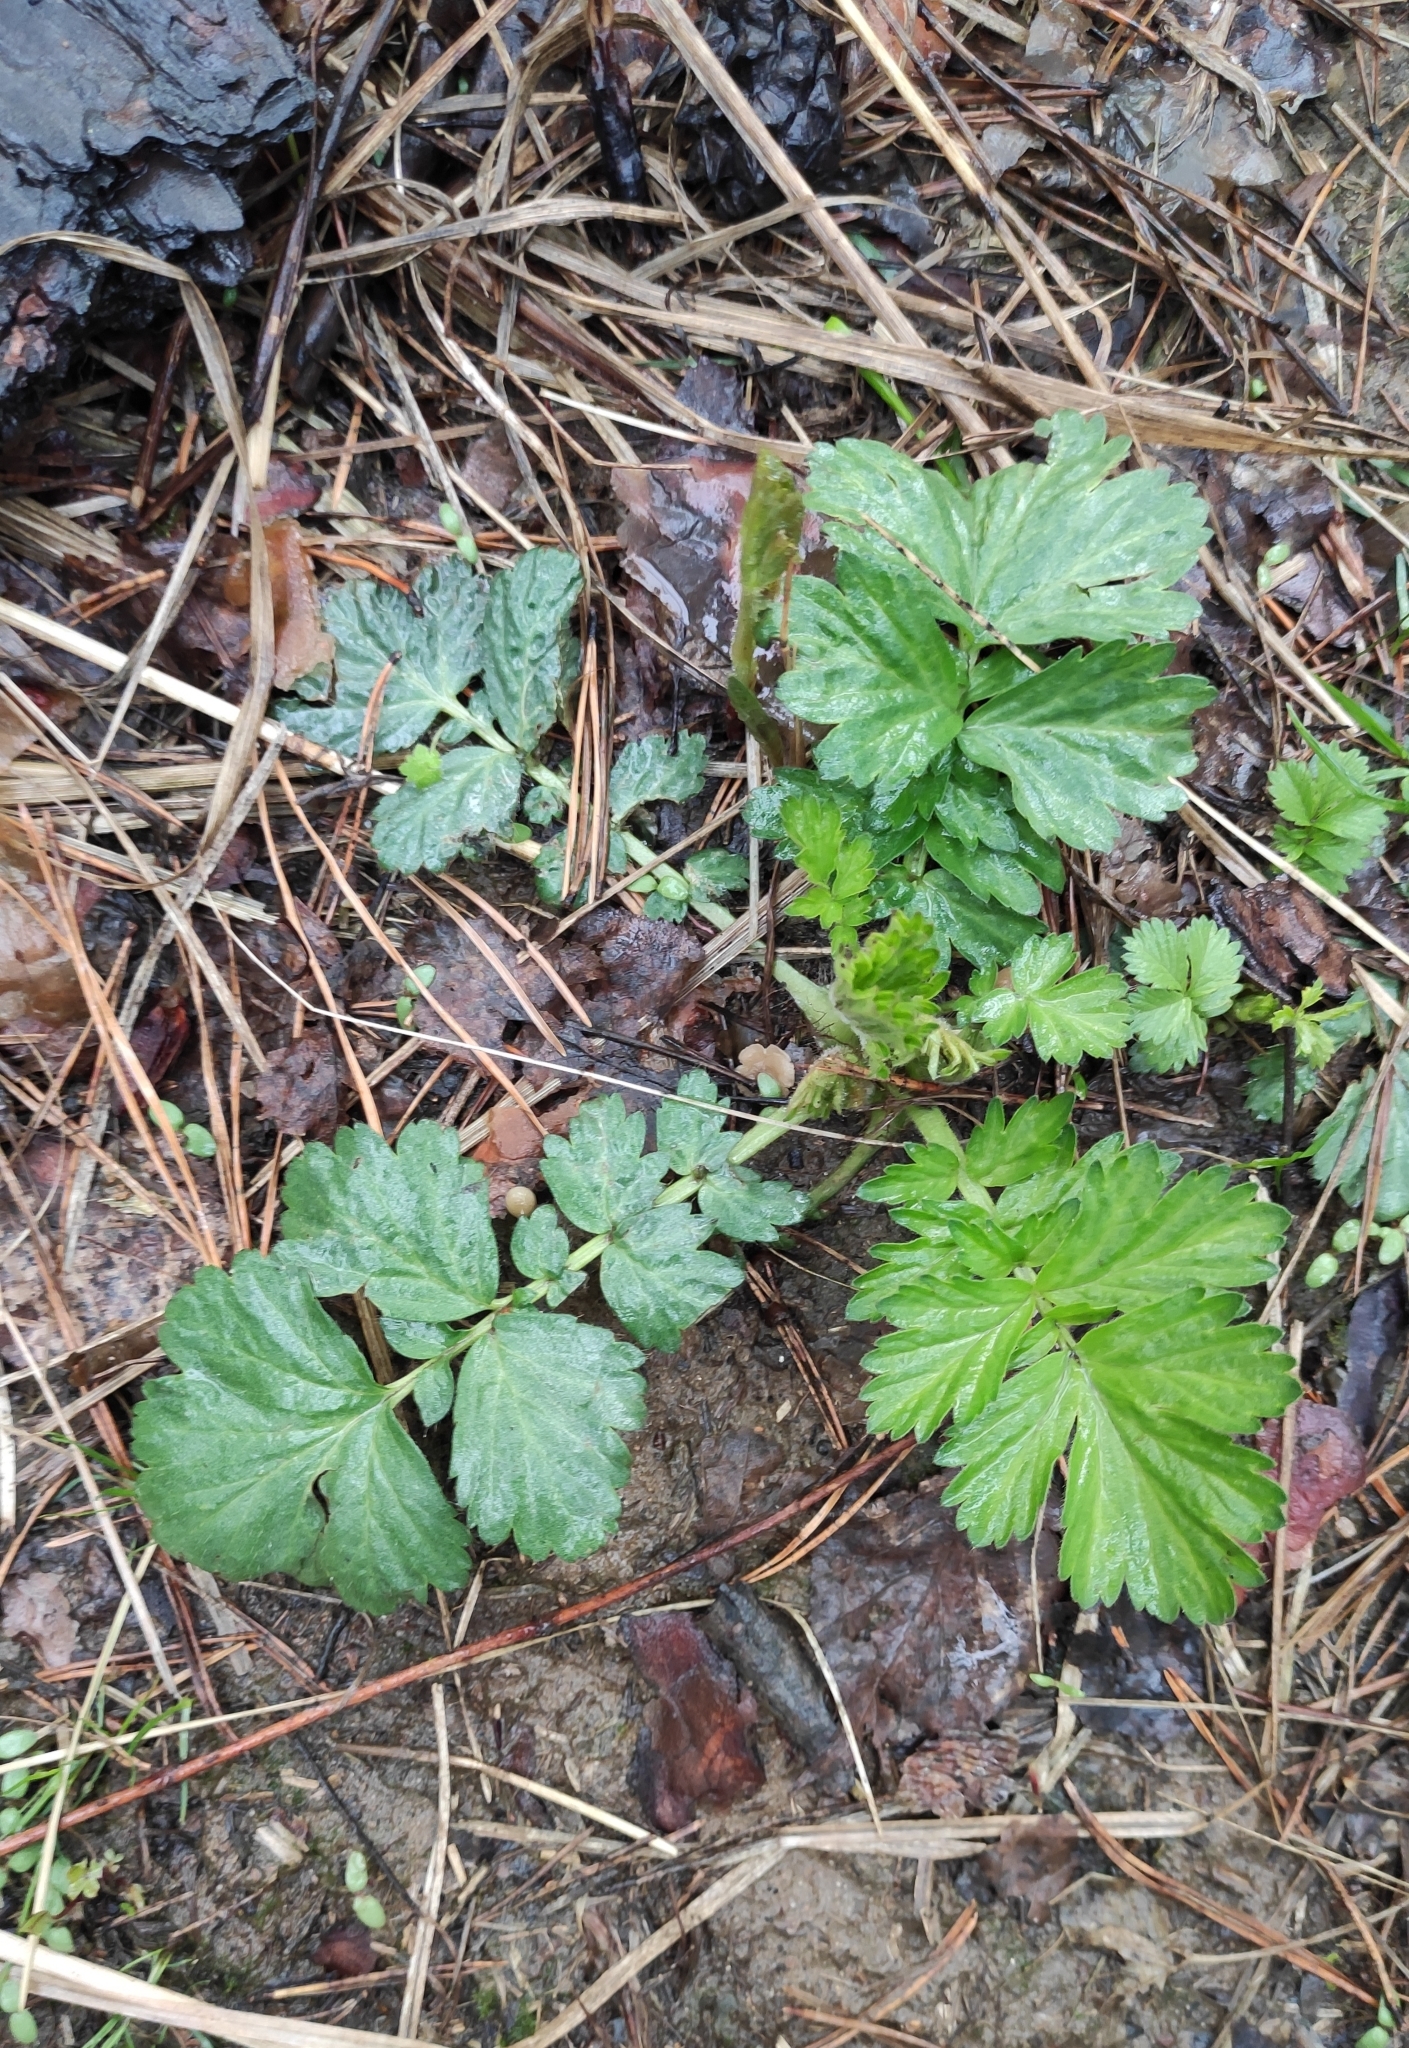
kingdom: Plantae
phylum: Tracheophyta
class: Magnoliopsida
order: Rosales
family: Rosaceae
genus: Geum
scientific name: Geum aleppicum
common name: Yellow avens
